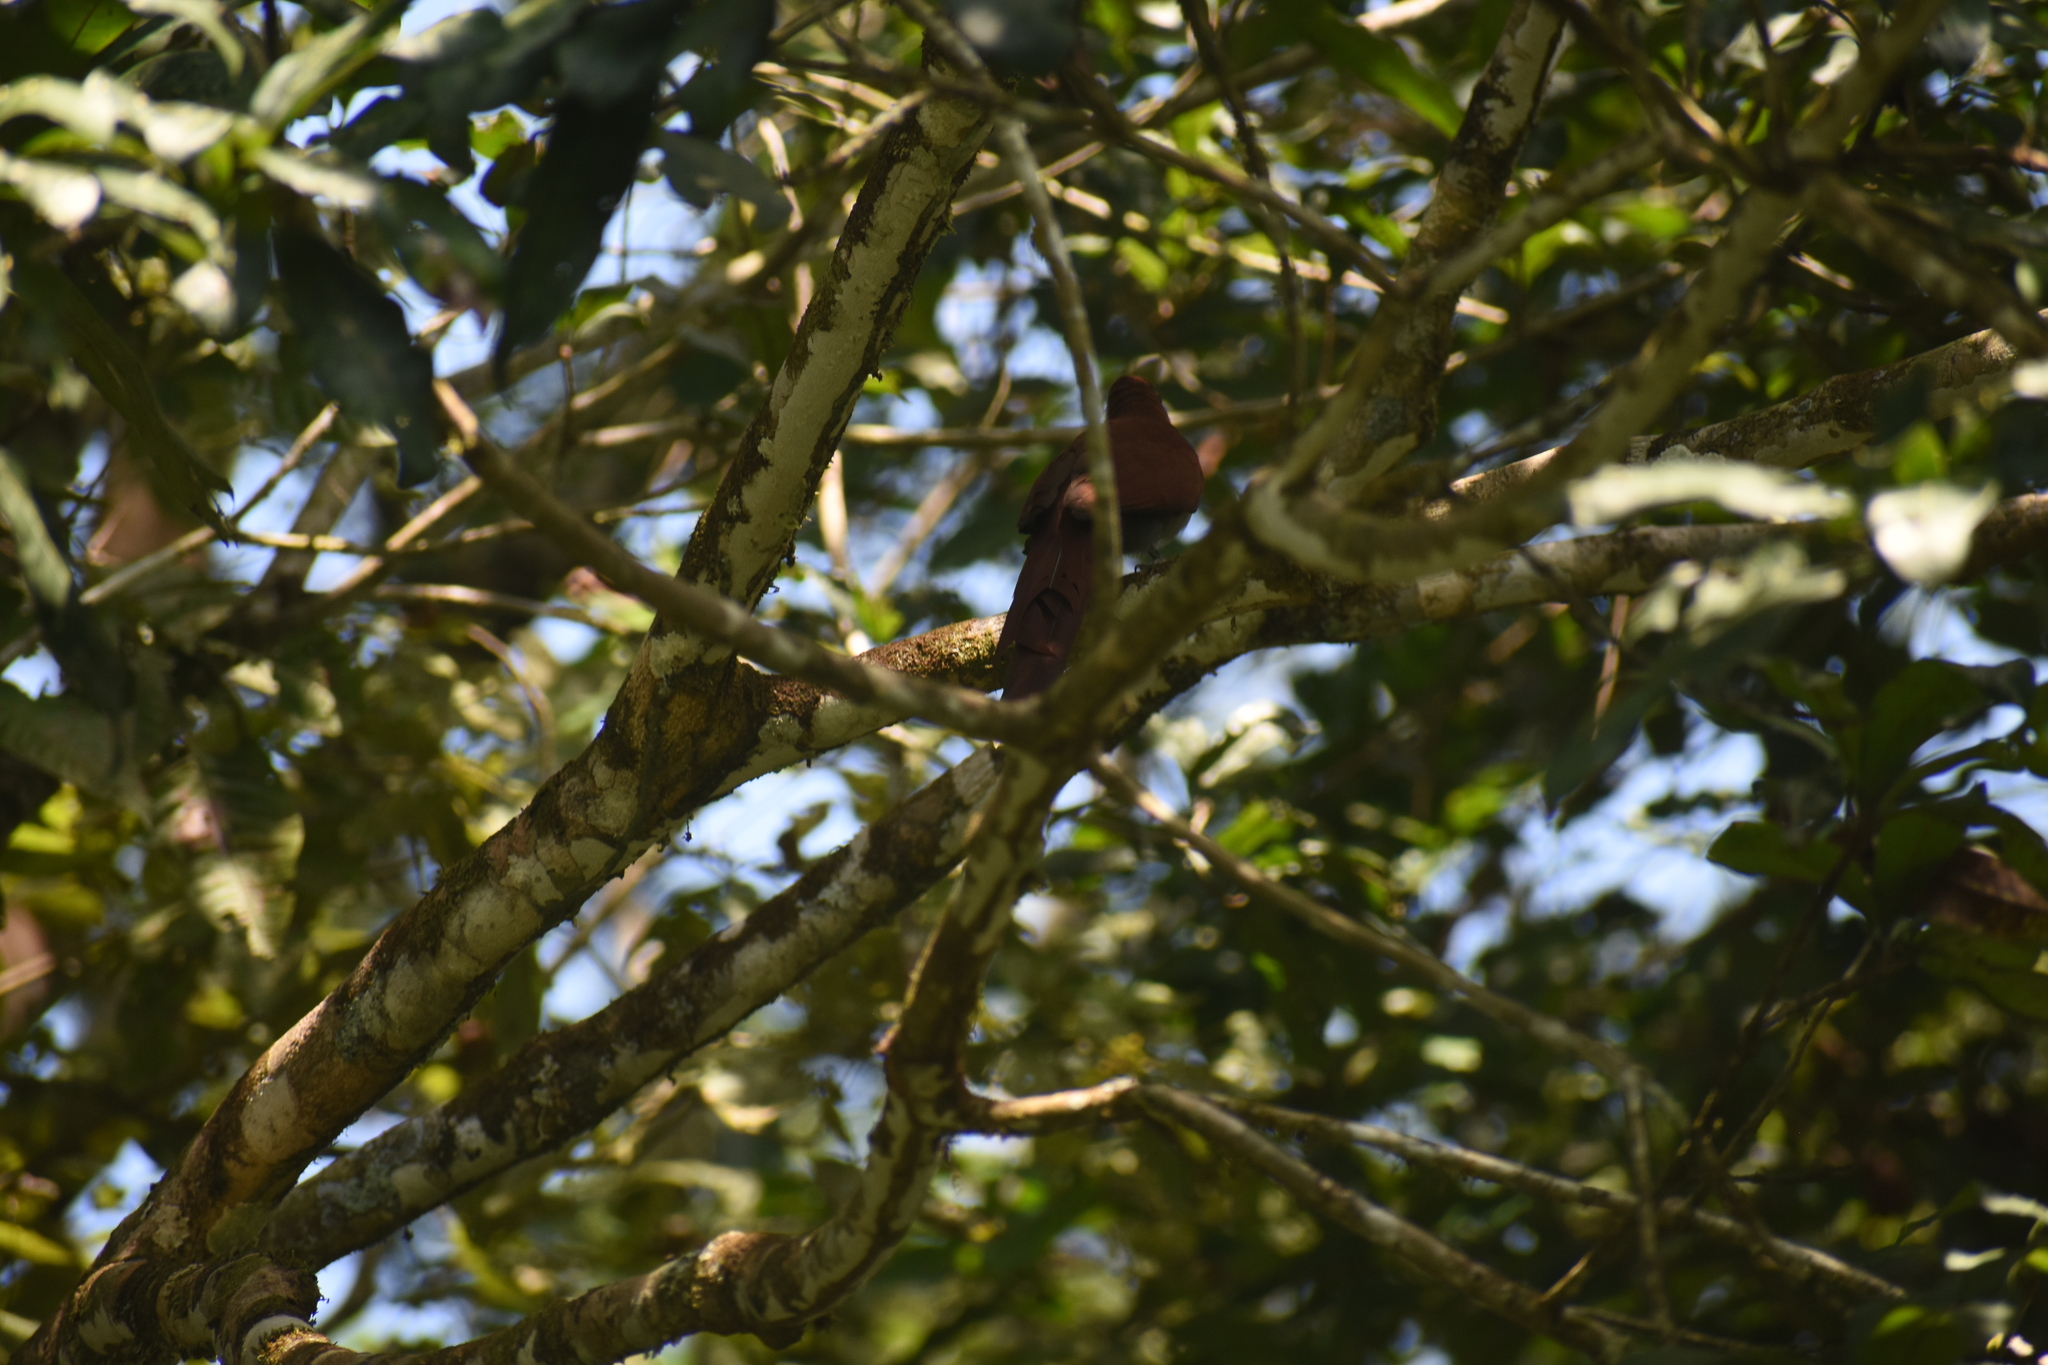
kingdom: Animalia
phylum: Chordata
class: Aves
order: Cuculiformes
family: Cuculidae
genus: Piaya
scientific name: Piaya minuta
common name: Little cuckoo
